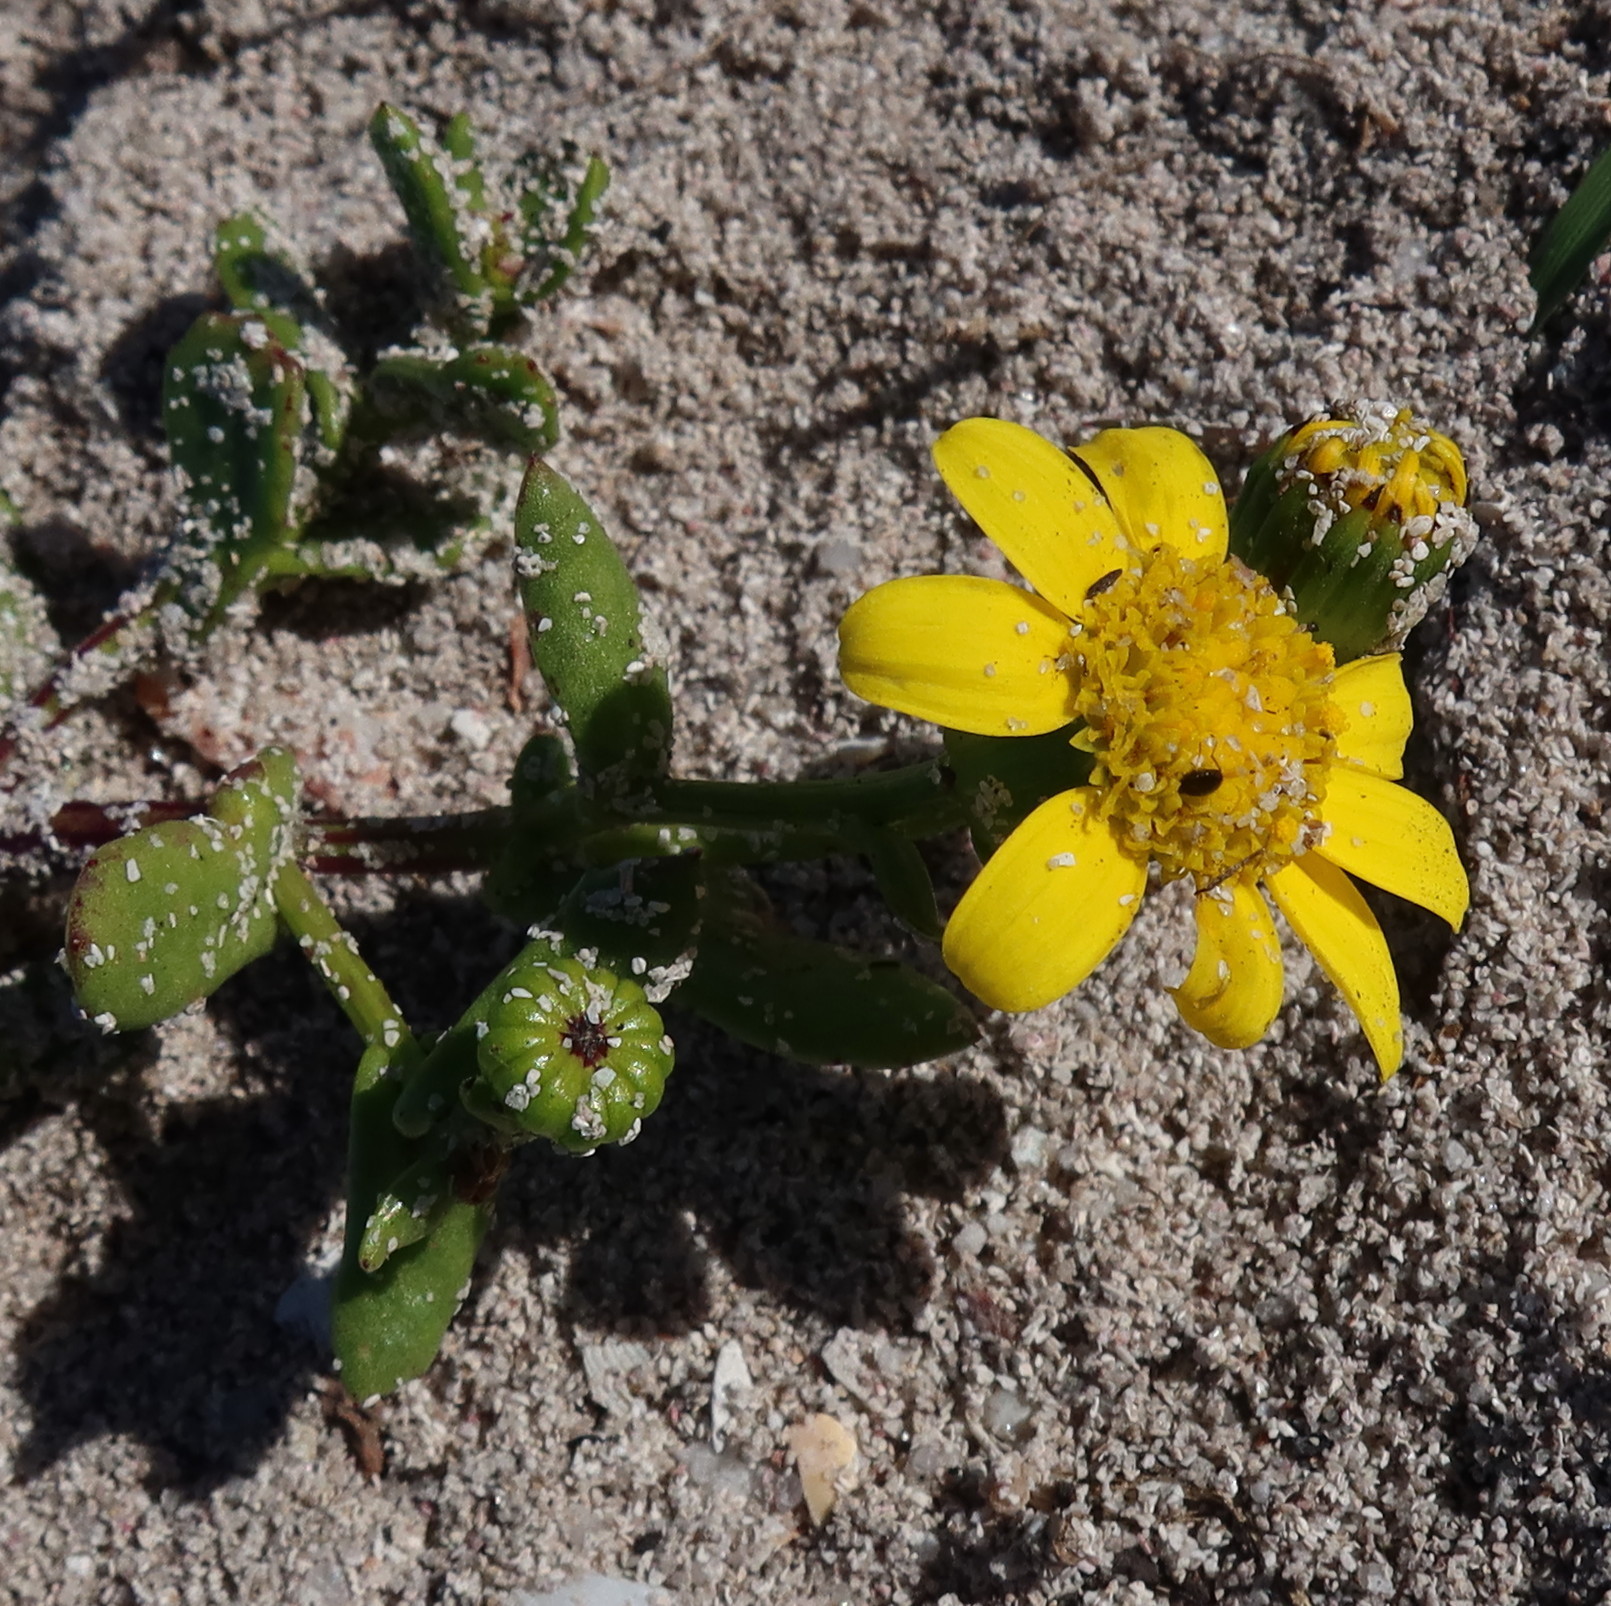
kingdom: Plantae
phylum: Tracheophyta
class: Magnoliopsida
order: Asterales
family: Asteraceae
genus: Senecio
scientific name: Senecio maritimus
